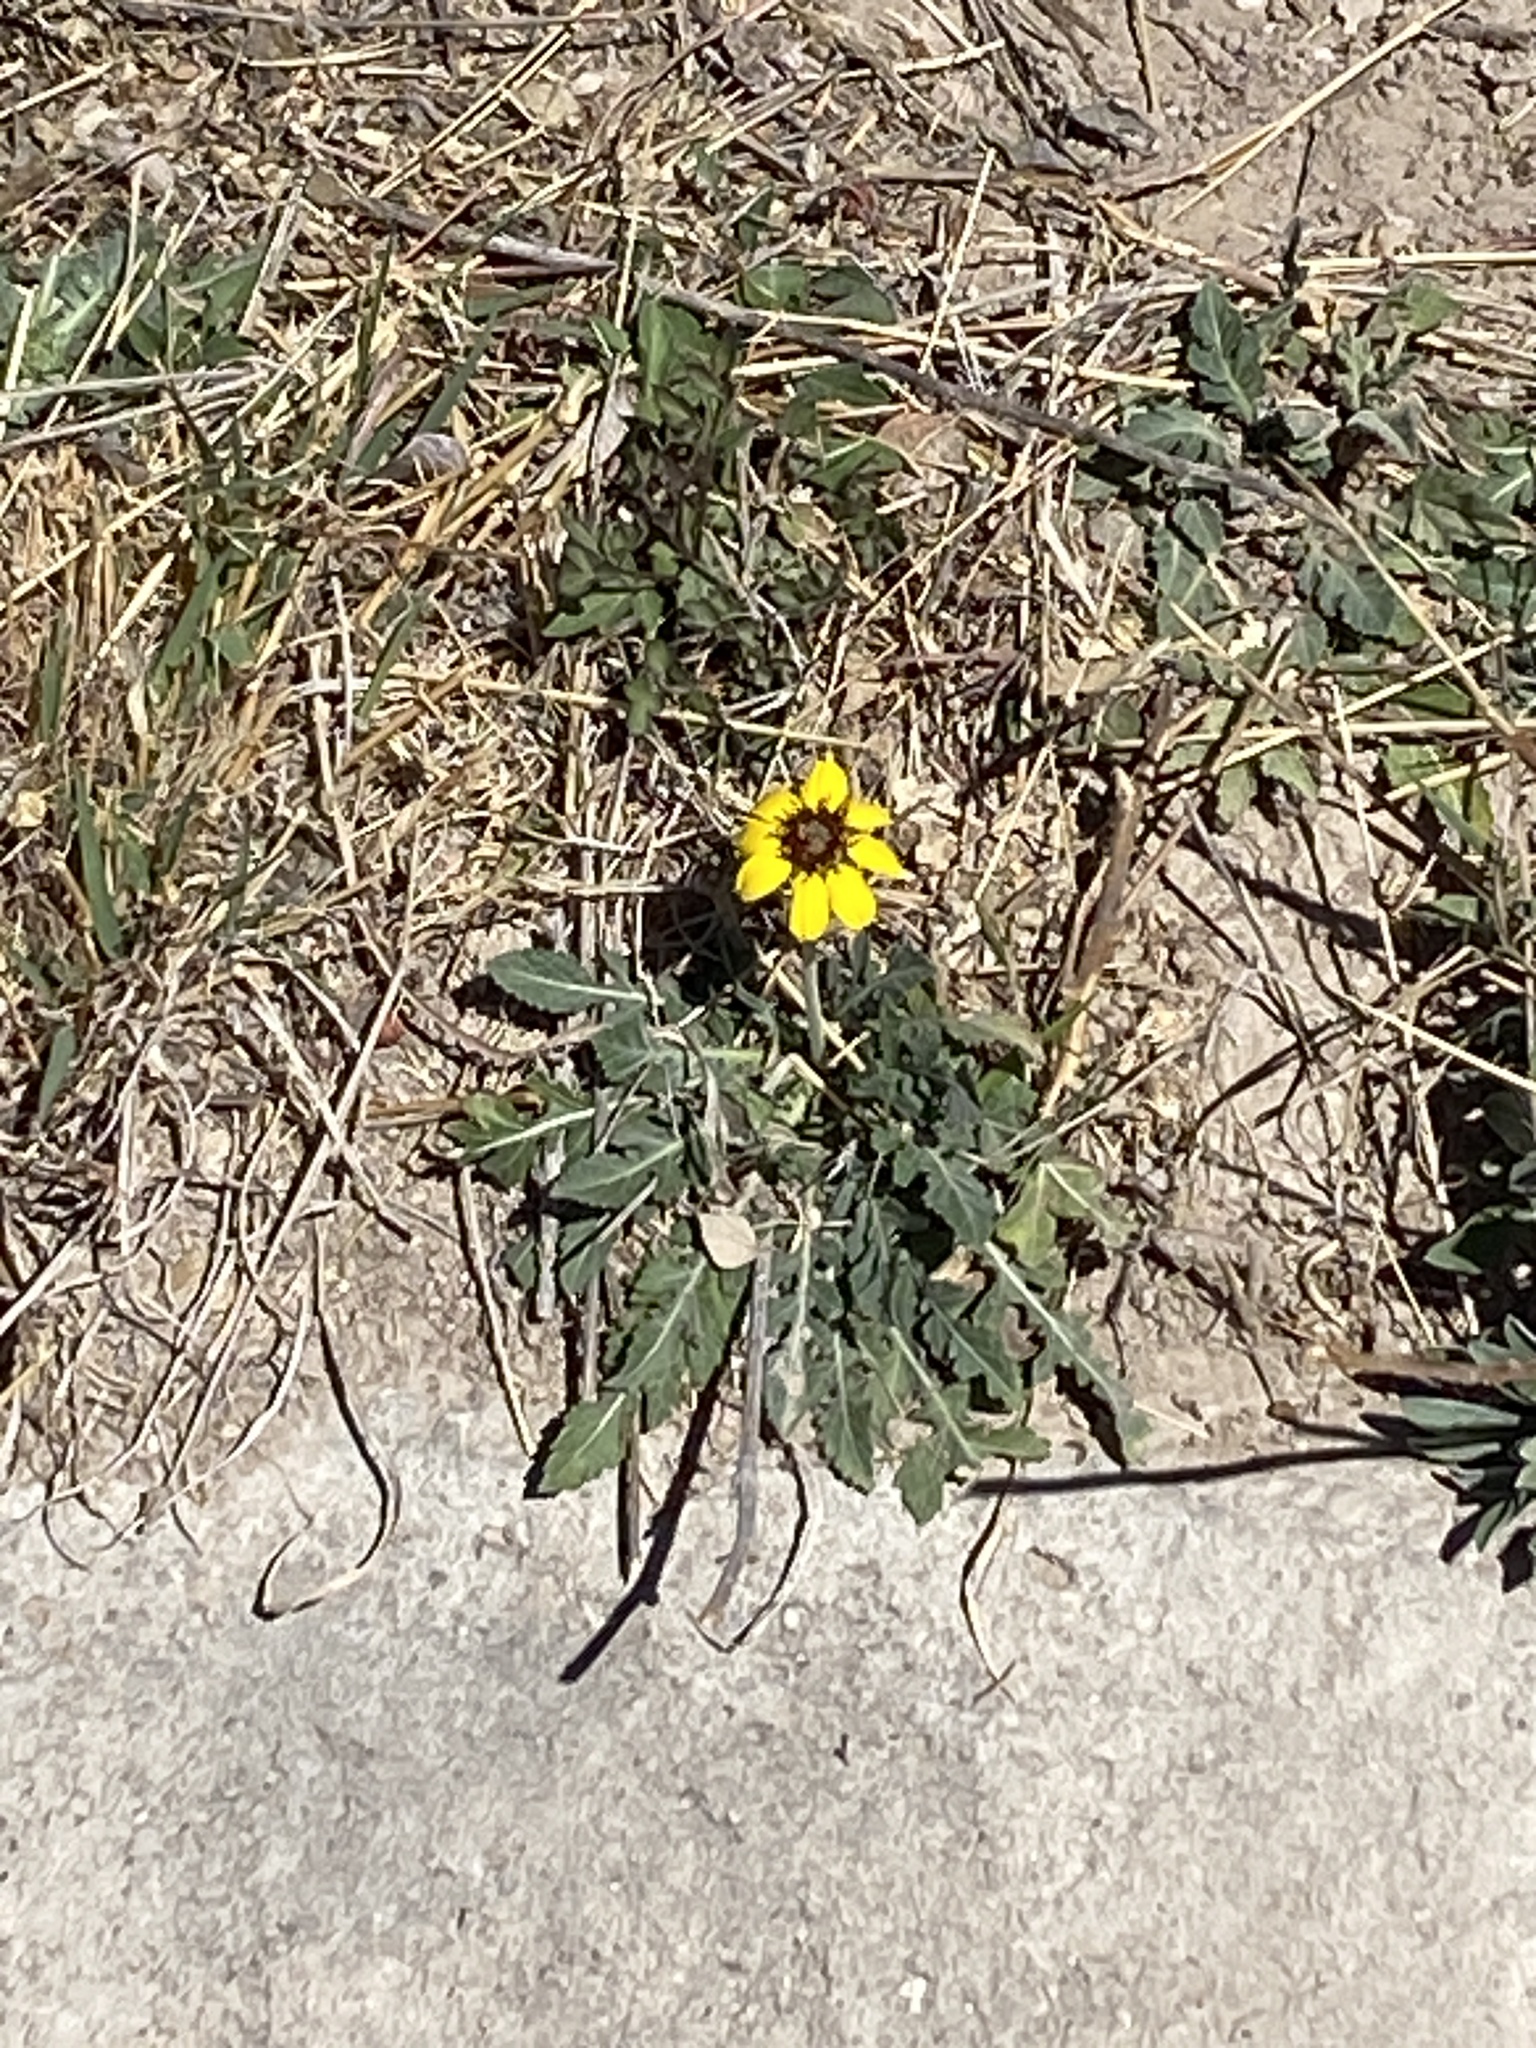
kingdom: Plantae
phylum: Tracheophyta
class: Magnoliopsida
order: Asterales
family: Asteraceae
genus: Berlandiera
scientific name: Berlandiera lyrata
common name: Chocolate-flower
